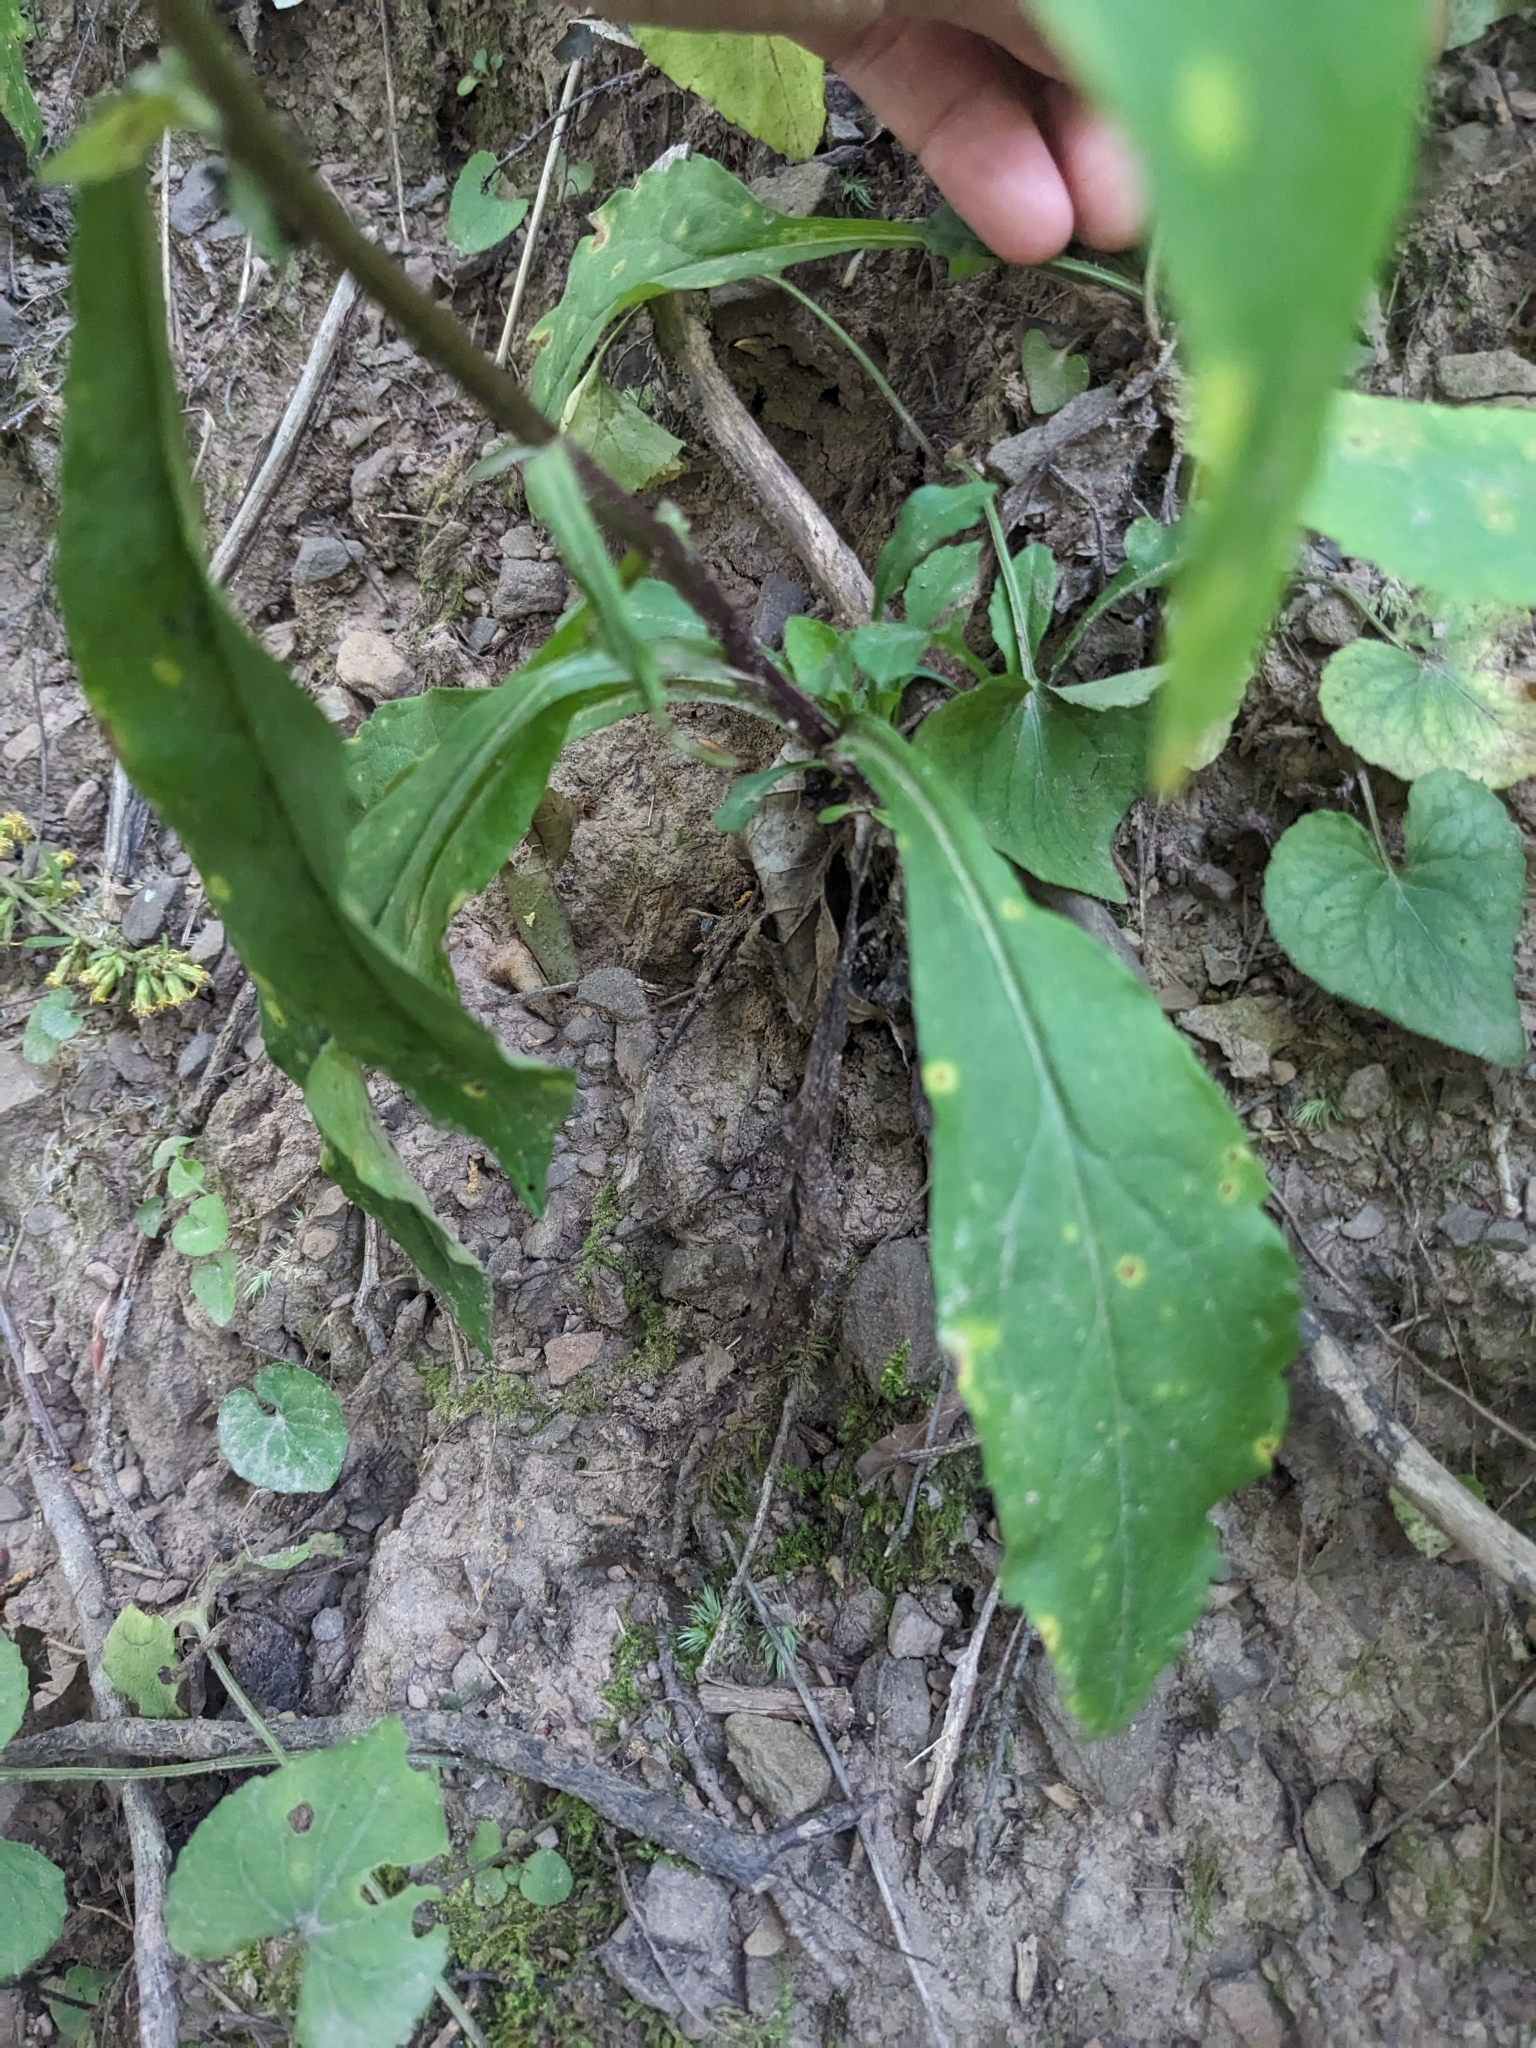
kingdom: Plantae
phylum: Tracheophyta
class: Magnoliopsida
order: Asterales
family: Asteraceae
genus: Solidago
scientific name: Solidago caesia
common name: Woodland goldenrod
